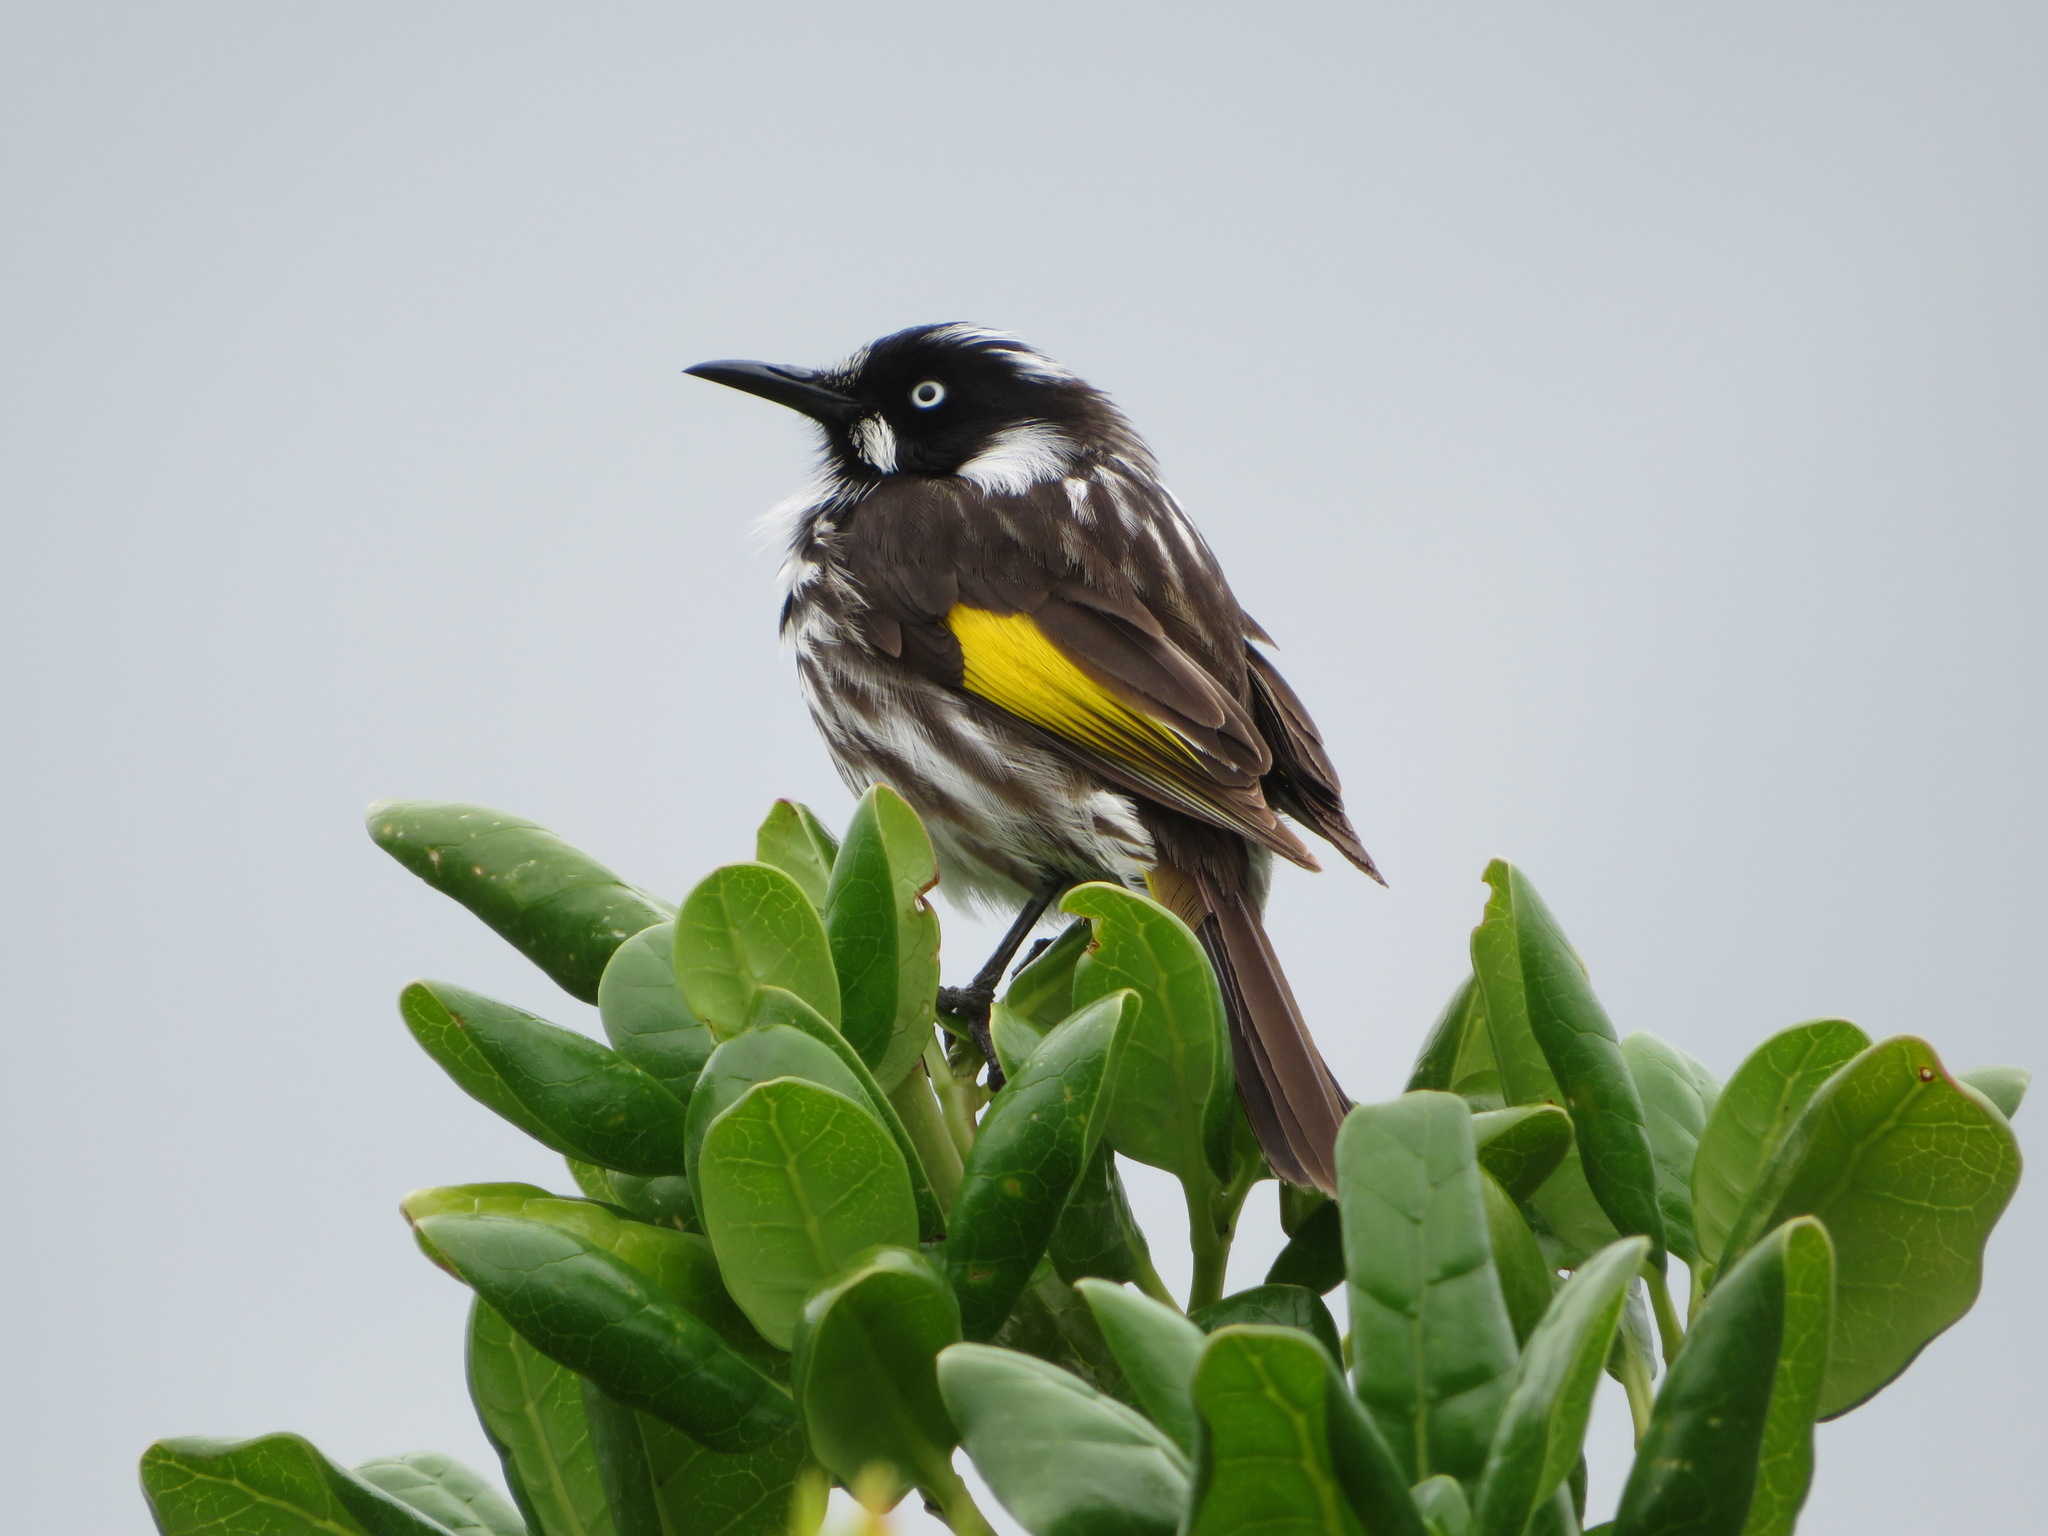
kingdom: Animalia
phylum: Chordata
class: Aves
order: Passeriformes
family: Meliphagidae
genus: Phylidonyris
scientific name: Phylidonyris novaehollandiae
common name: New holland honeyeater
